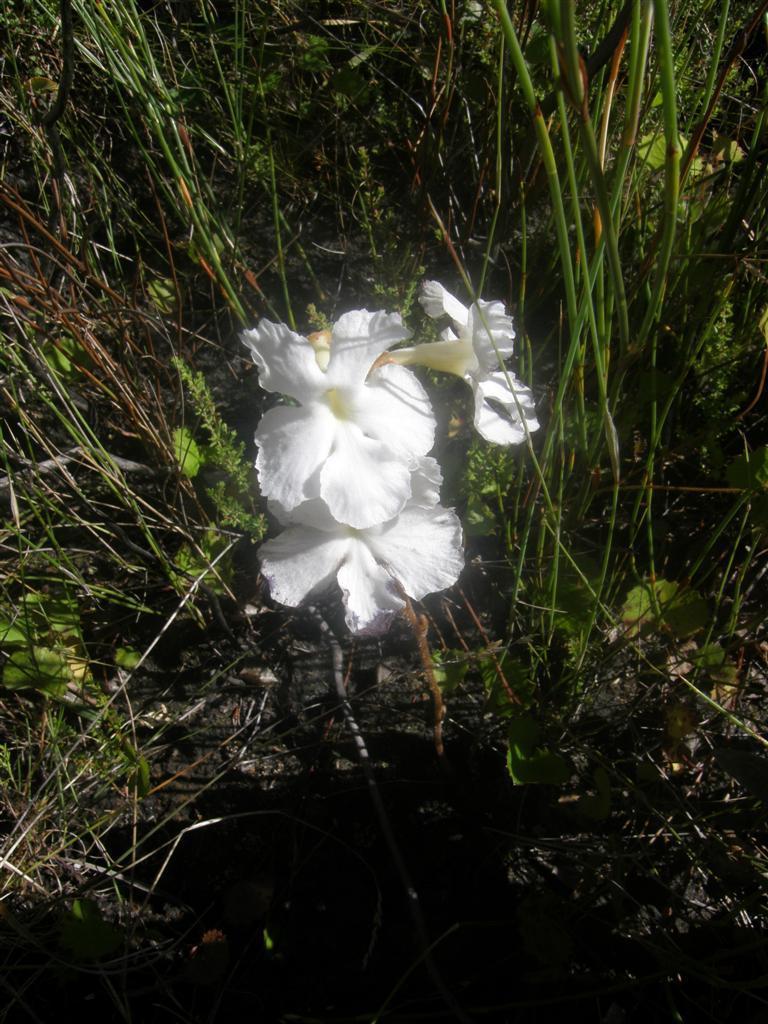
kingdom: Plantae
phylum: Tracheophyta
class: Magnoliopsida
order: Lamiales
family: Orobanchaceae
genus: Harveya
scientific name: Harveya capensis
